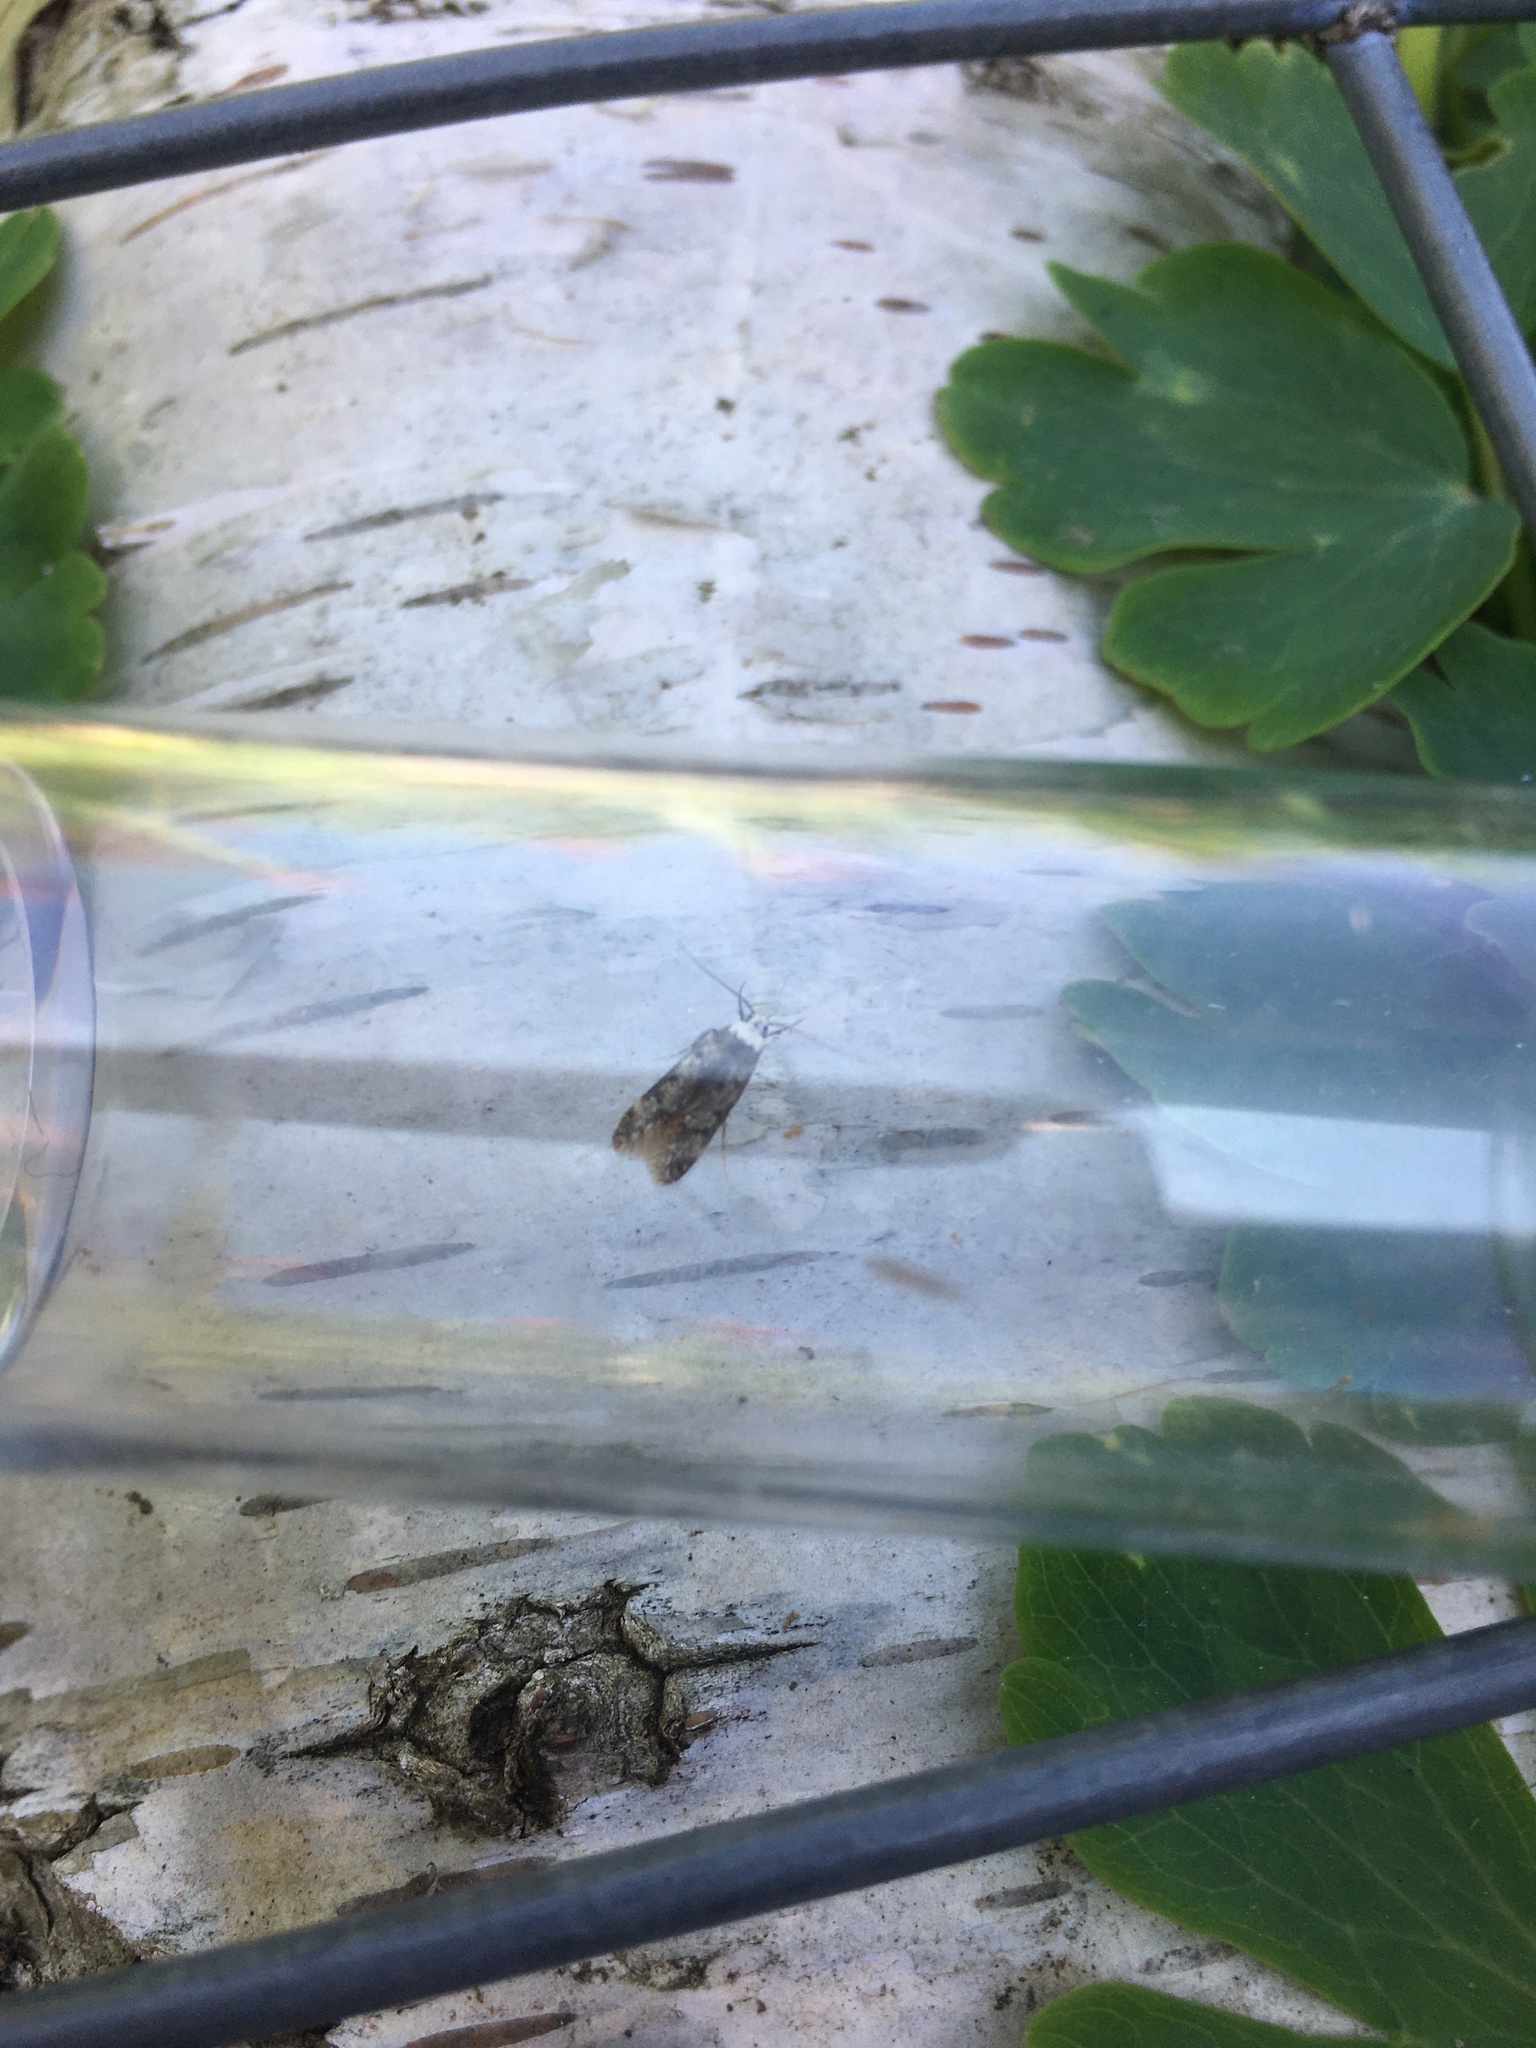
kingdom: Animalia
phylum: Arthropoda
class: Insecta
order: Lepidoptera
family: Oecophoridae
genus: Endrosis
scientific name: Endrosis sarcitrella
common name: White-shouldered house moth
